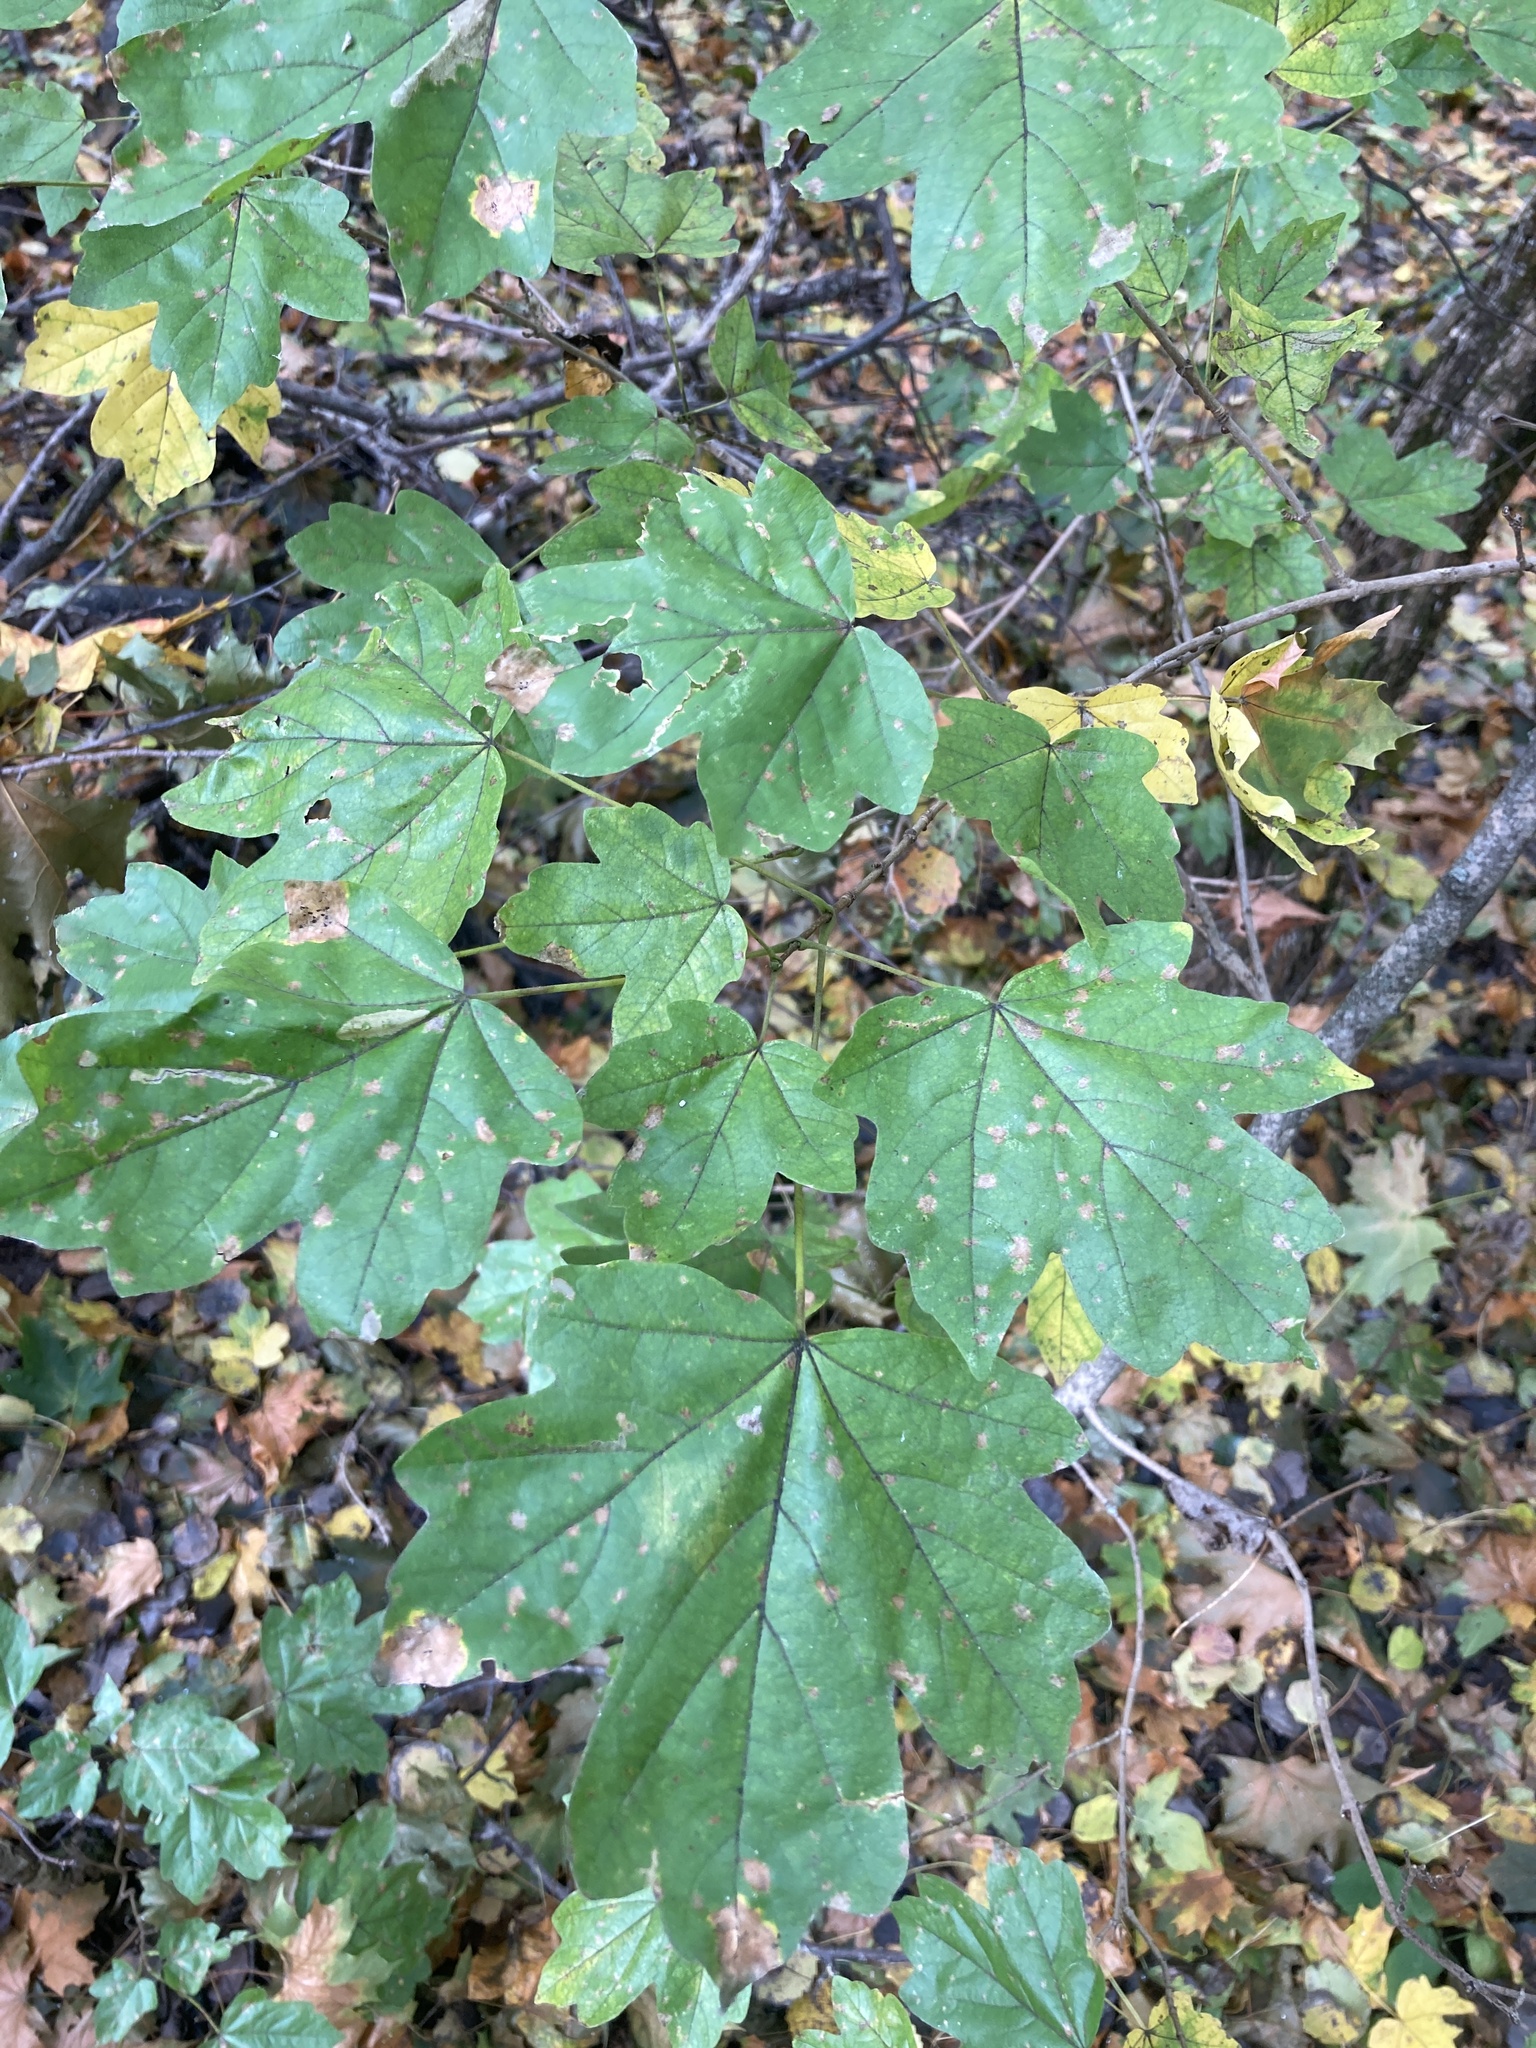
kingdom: Plantae
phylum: Tracheophyta
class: Magnoliopsida
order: Sapindales
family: Sapindaceae
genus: Acer
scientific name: Acer campestre
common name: Field maple
